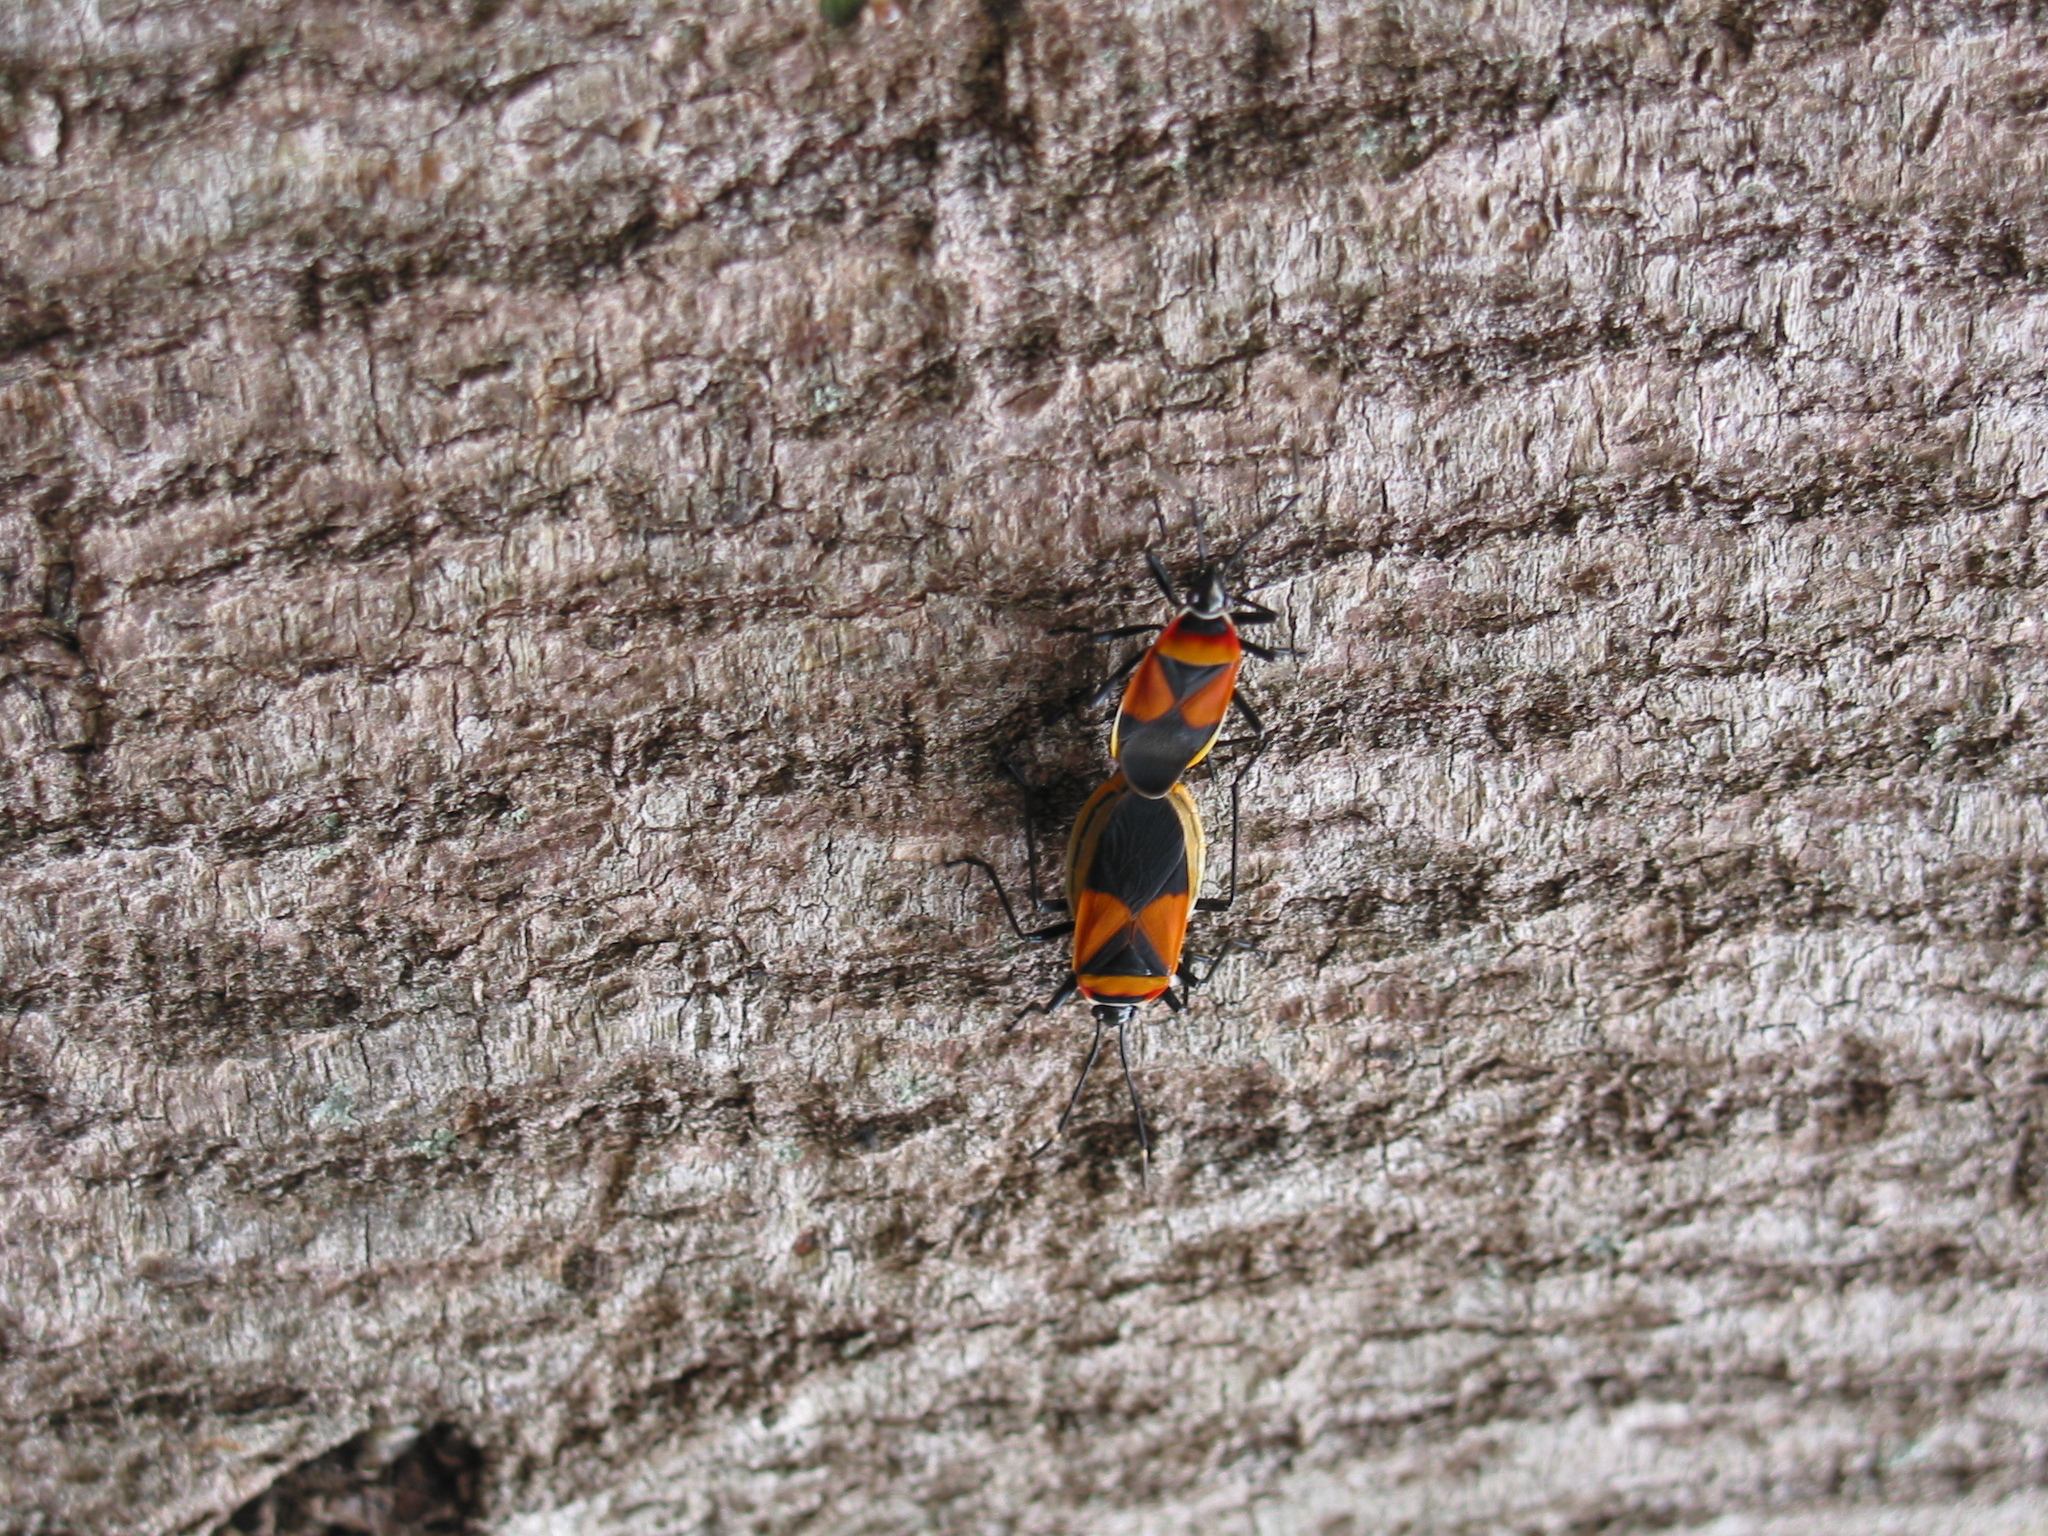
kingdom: Animalia
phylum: Arthropoda
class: Insecta
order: Hemiptera
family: Pyrrhocoridae
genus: Dindymus
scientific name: Dindymus
